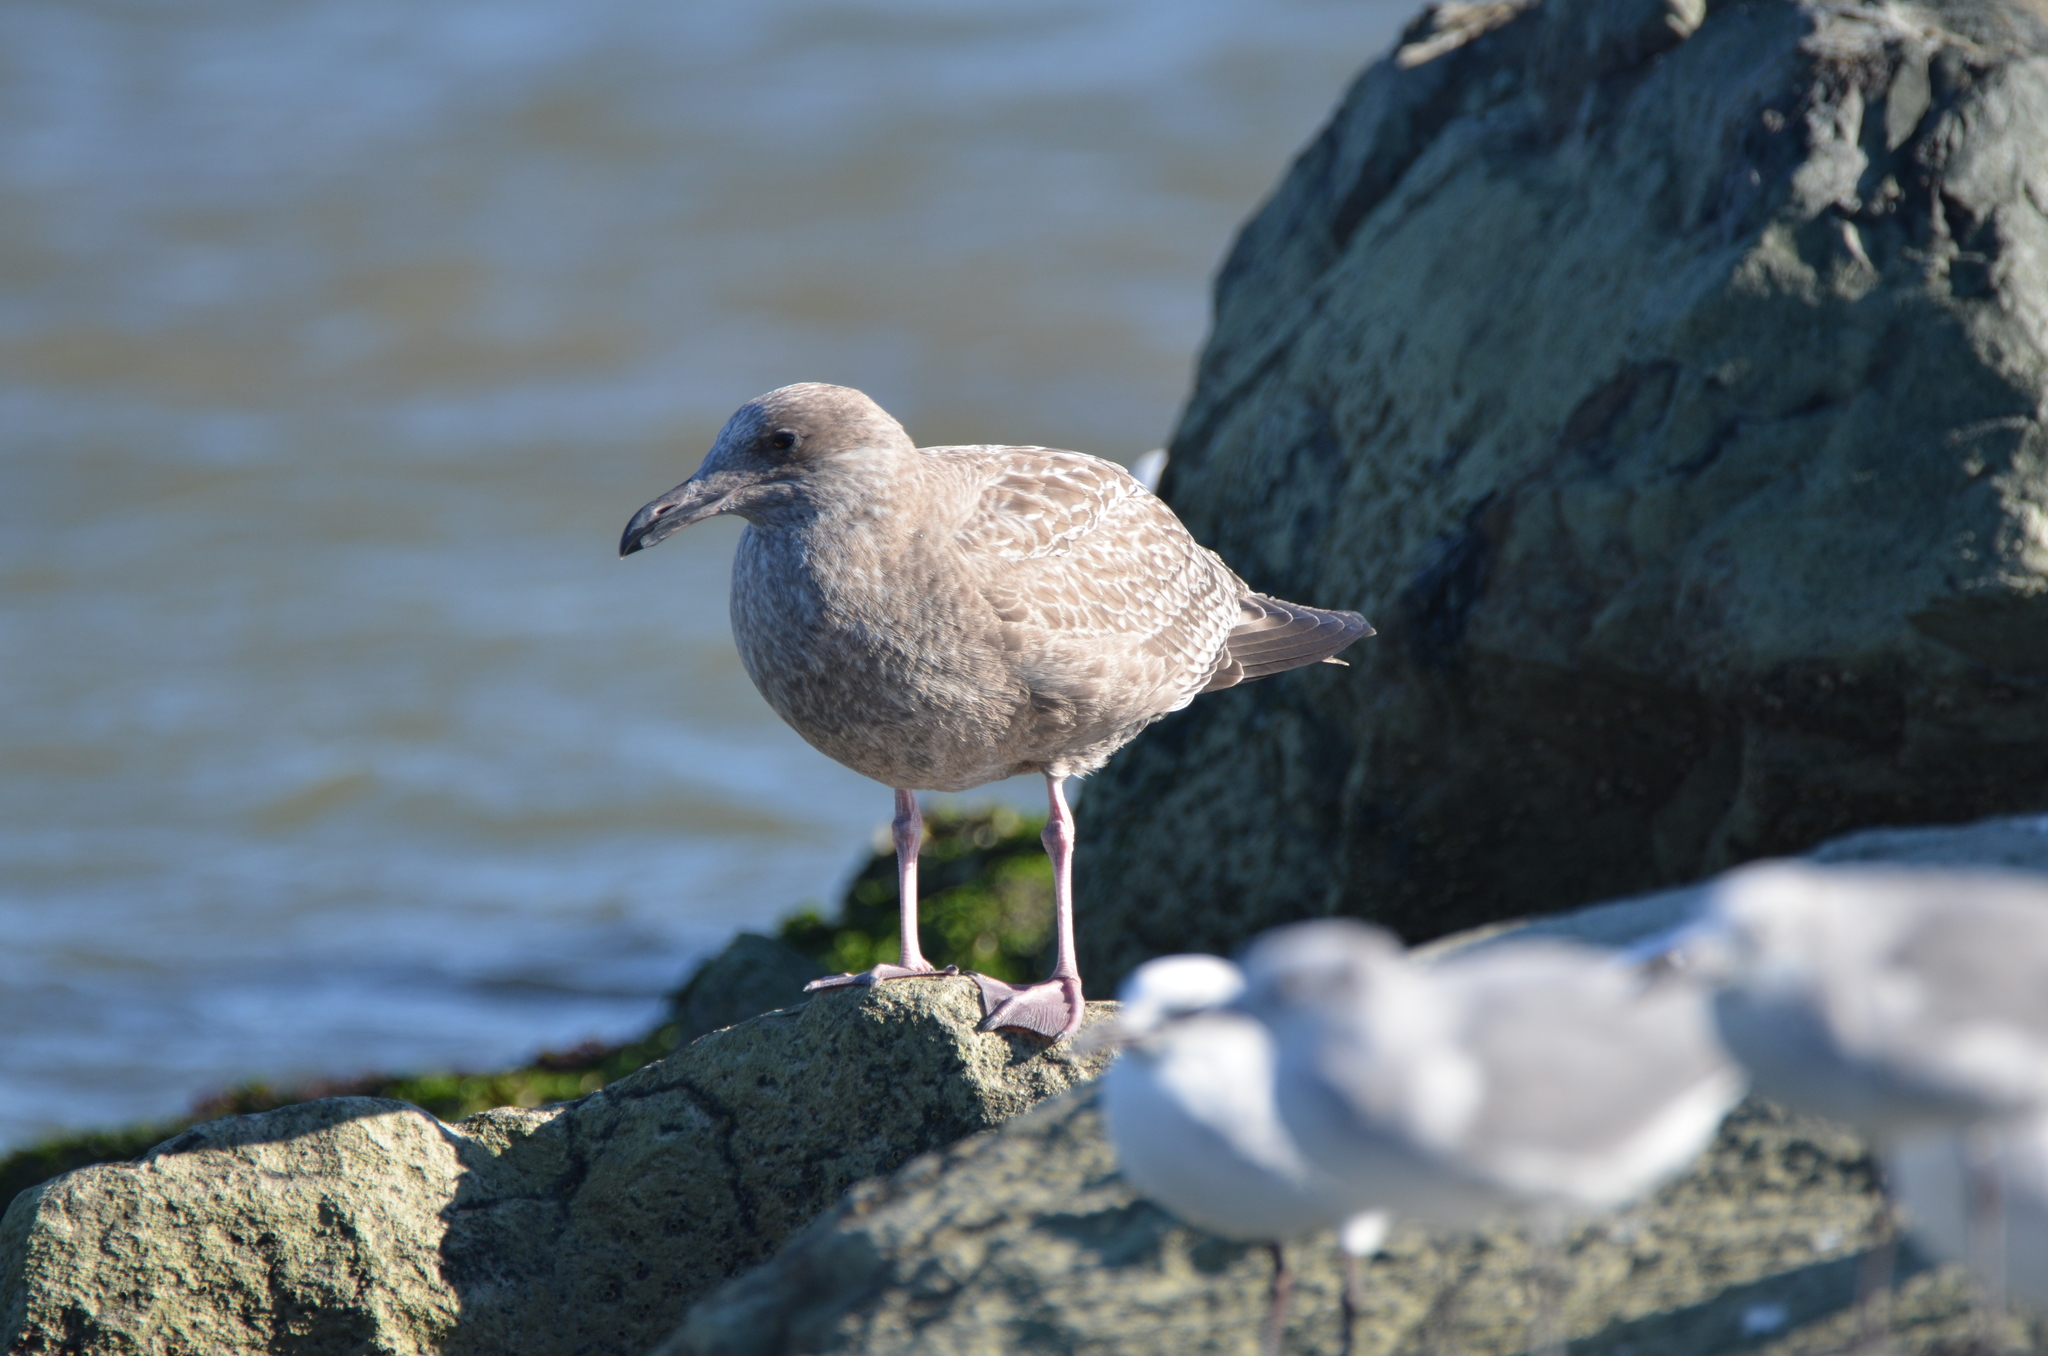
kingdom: Animalia
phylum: Chordata
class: Aves
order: Charadriiformes
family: Laridae
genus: Larus
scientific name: Larus argentatus
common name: Herring gull
